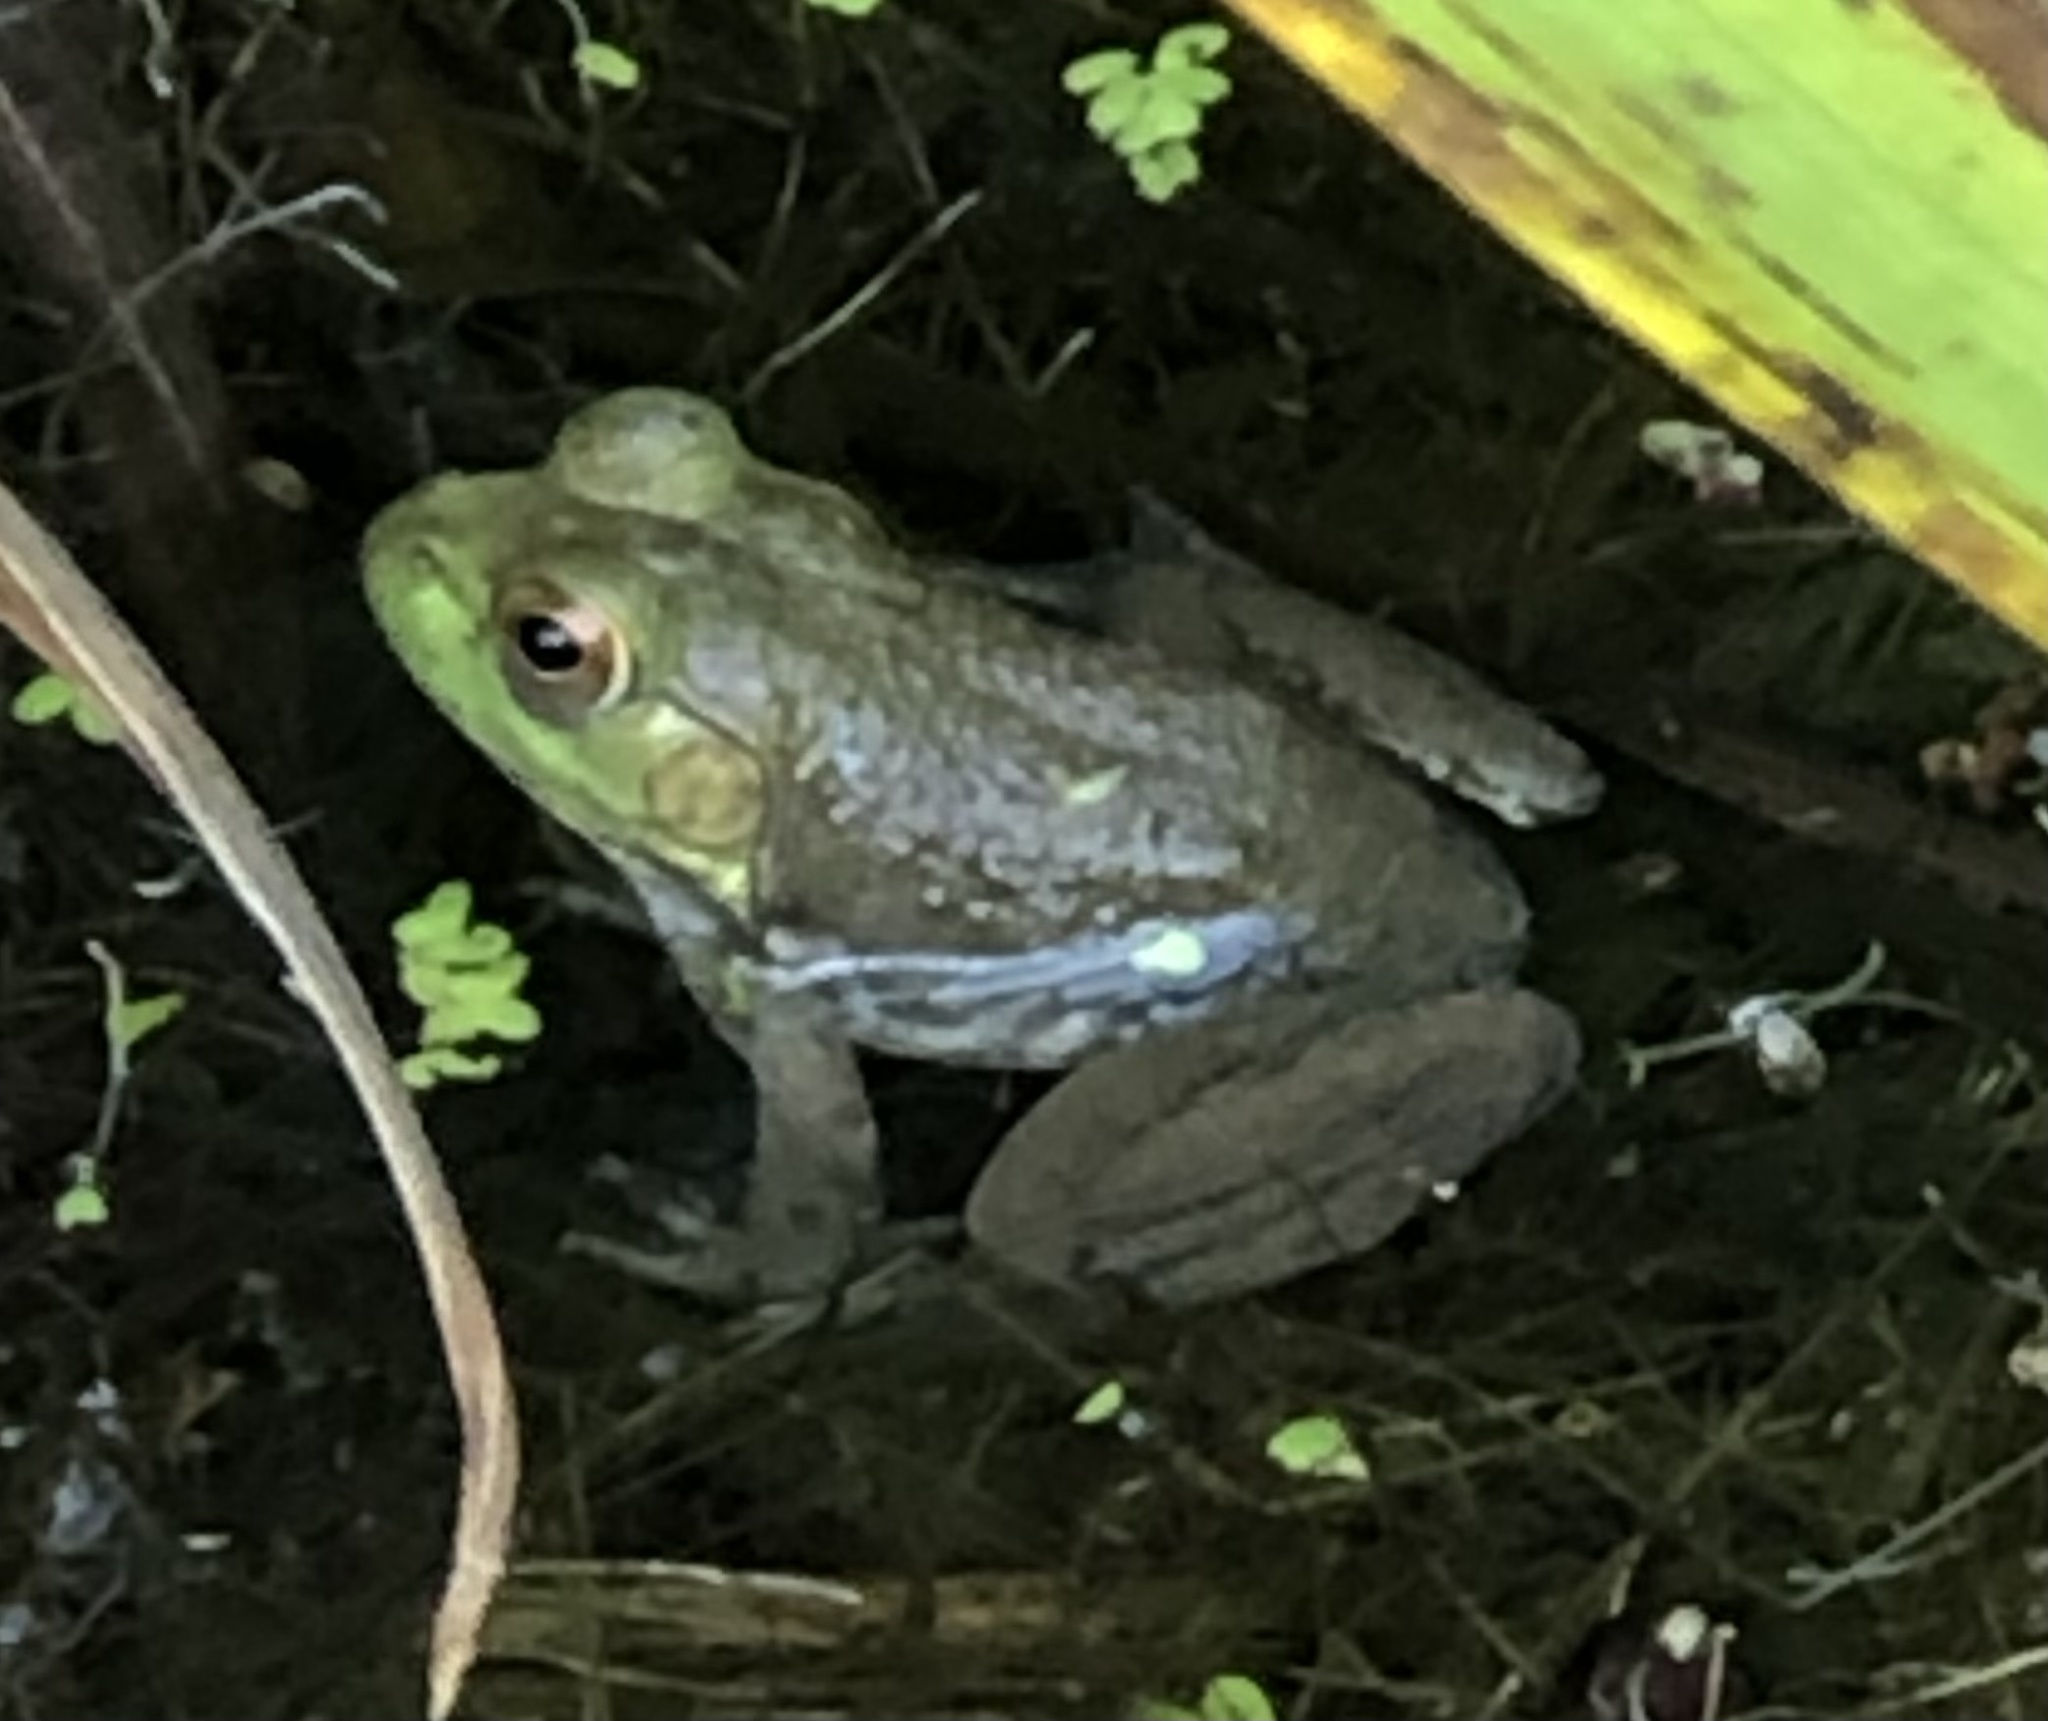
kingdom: Animalia
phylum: Chordata
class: Amphibia
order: Anura
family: Ranidae
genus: Lithobates
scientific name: Lithobates catesbeianus
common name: American bullfrog
